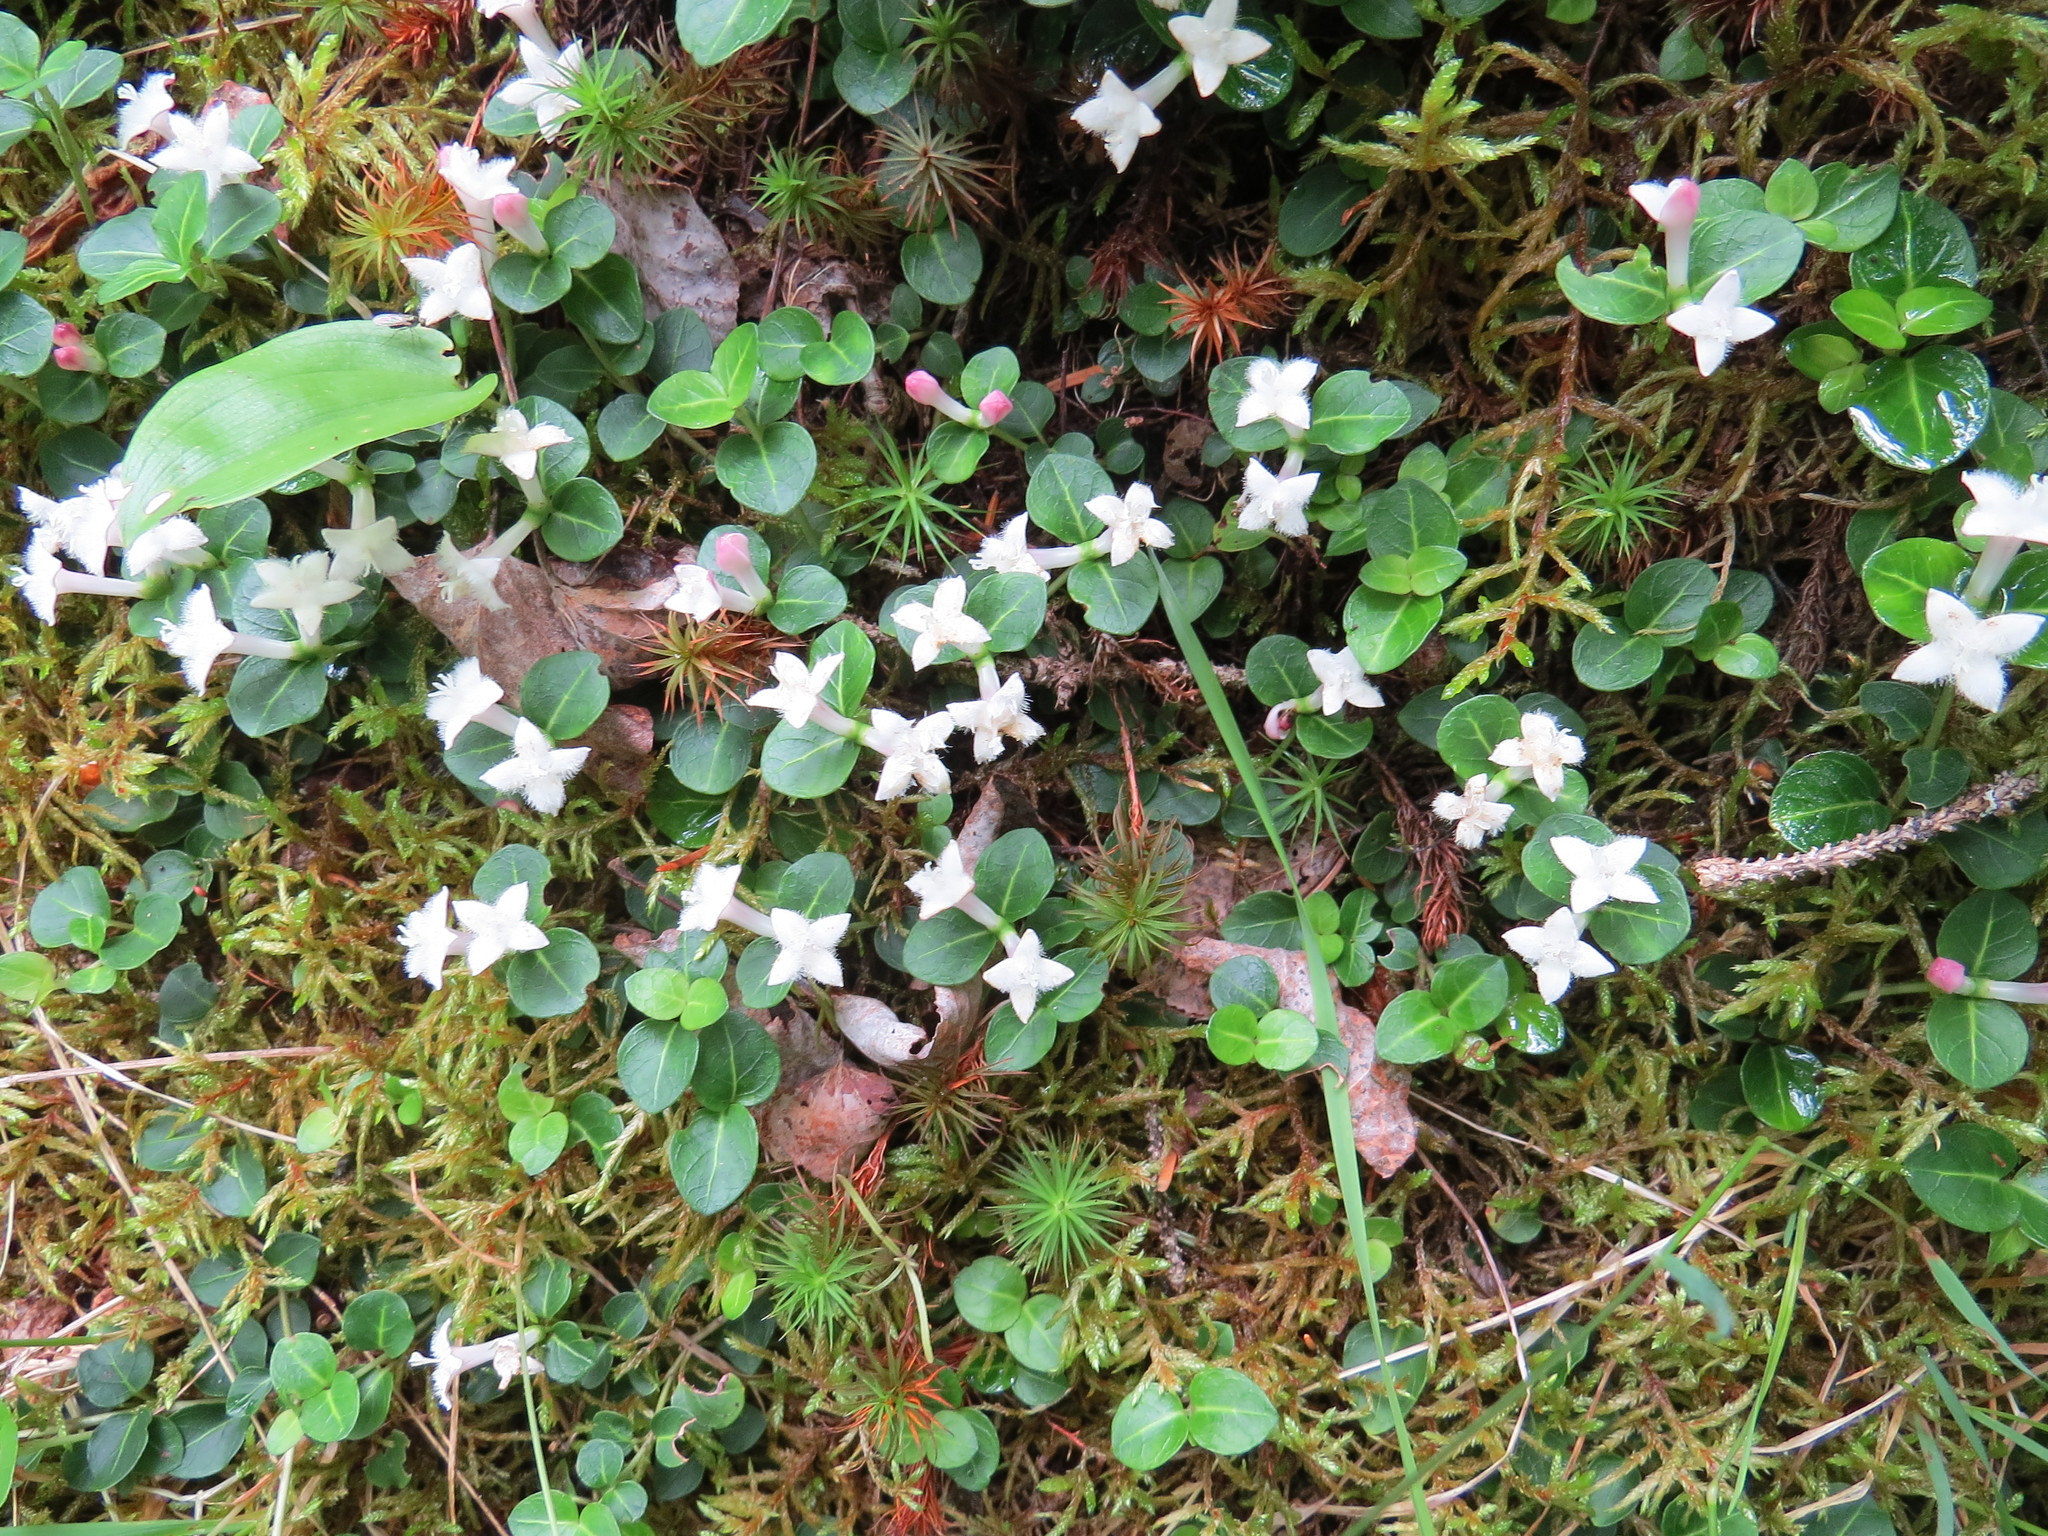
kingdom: Plantae
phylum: Tracheophyta
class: Magnoliopsida
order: Gentianales
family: Rubiaceae
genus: Mitchella
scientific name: Mitchella repens
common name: Partridge-berry
